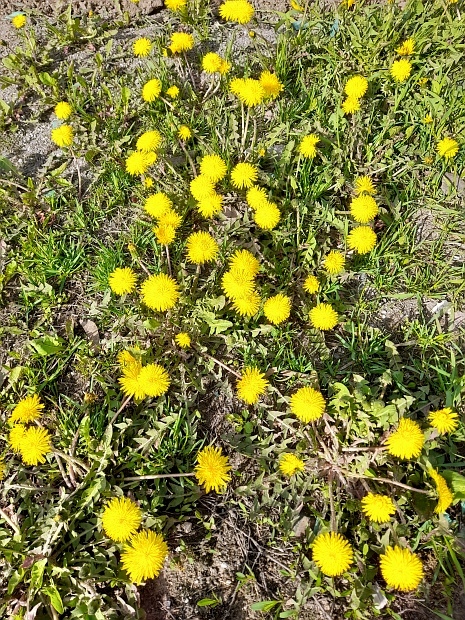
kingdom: Plantae
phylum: Tracheophyta
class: Magnoliopsida
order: Asterales
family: Asteraceae
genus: Taraxacum
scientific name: Taraxacum officinale
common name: Common dandelion
